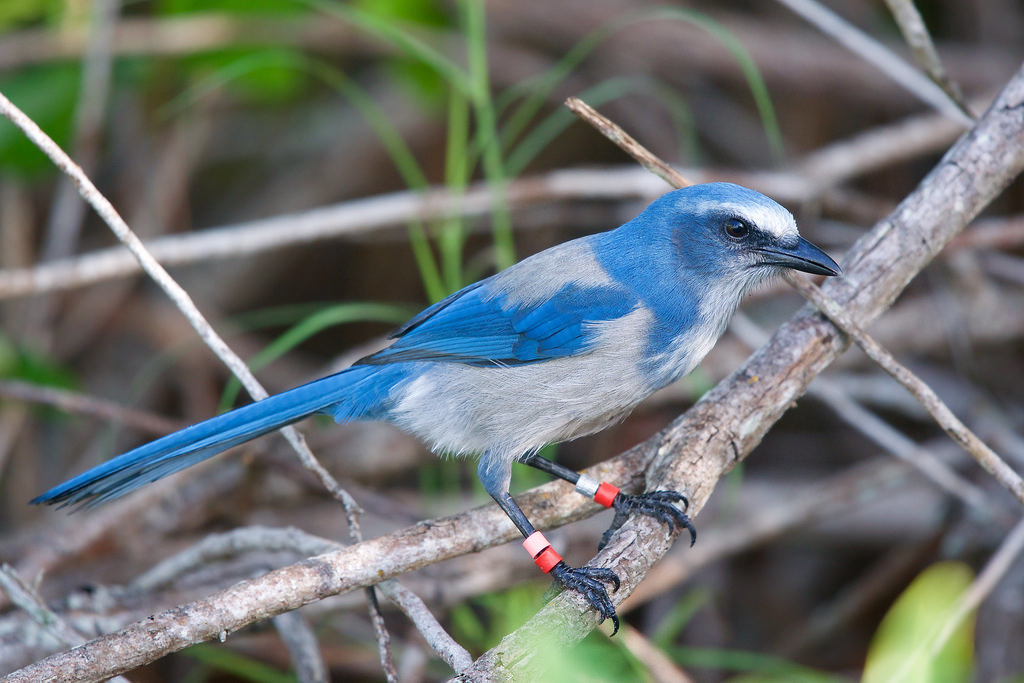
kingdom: Animalia
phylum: Chordata
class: Aves
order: Passeriformes
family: Corvidae
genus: Aphelocoma
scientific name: Aphelocoma coerulescens
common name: Florida scrub jay
